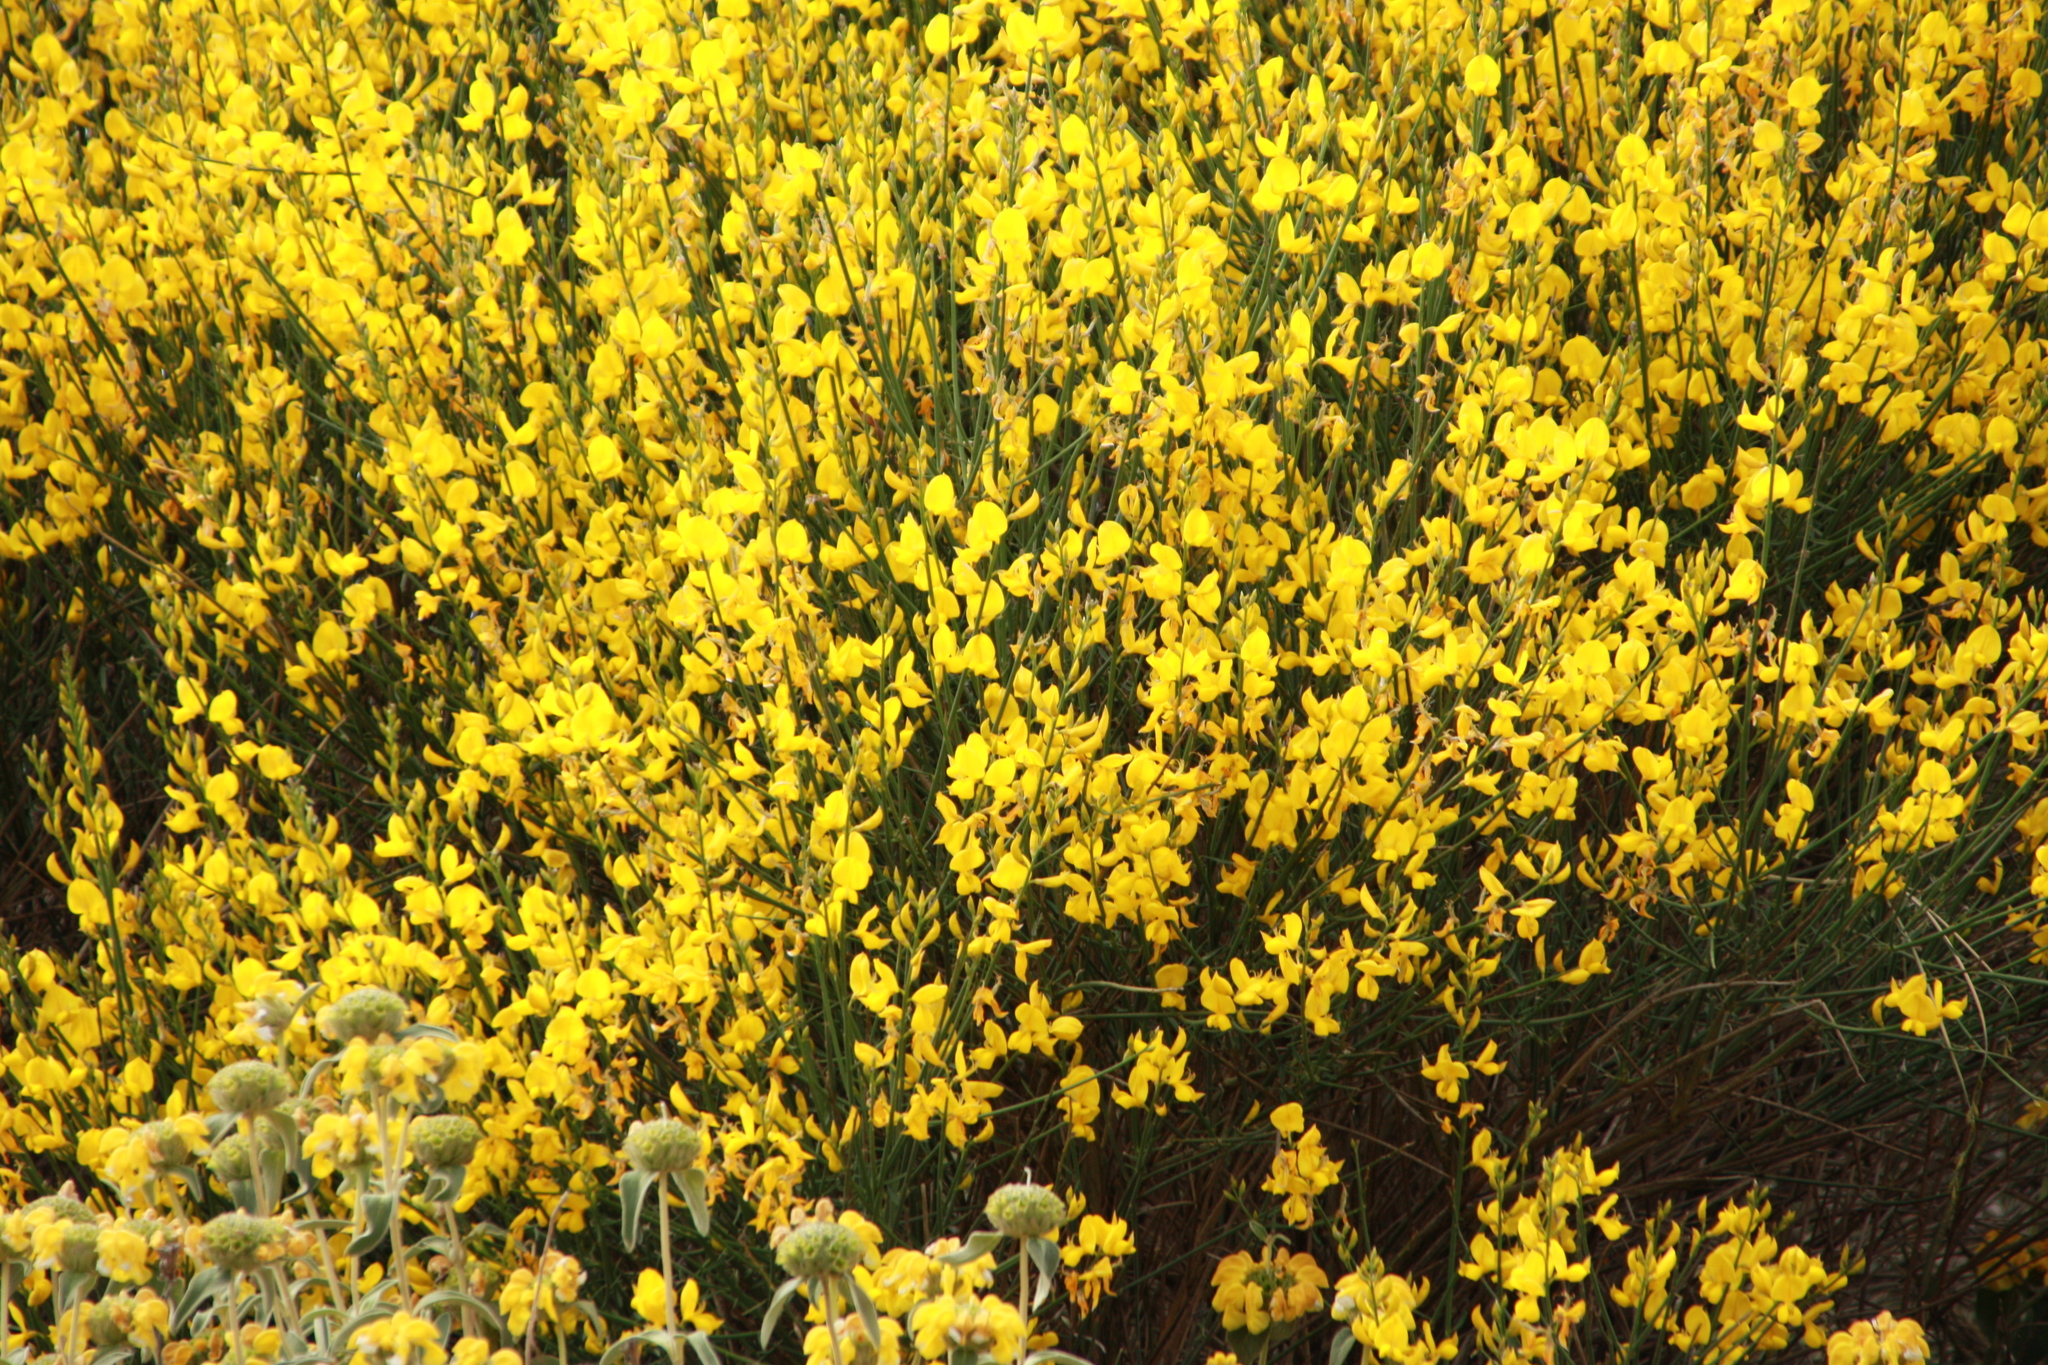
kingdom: Plantae
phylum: Tracheophyta
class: Magnoliopsida
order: Fabales
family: Fabaceae
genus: Spartium
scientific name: Spartium junceum
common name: Spanish broom
